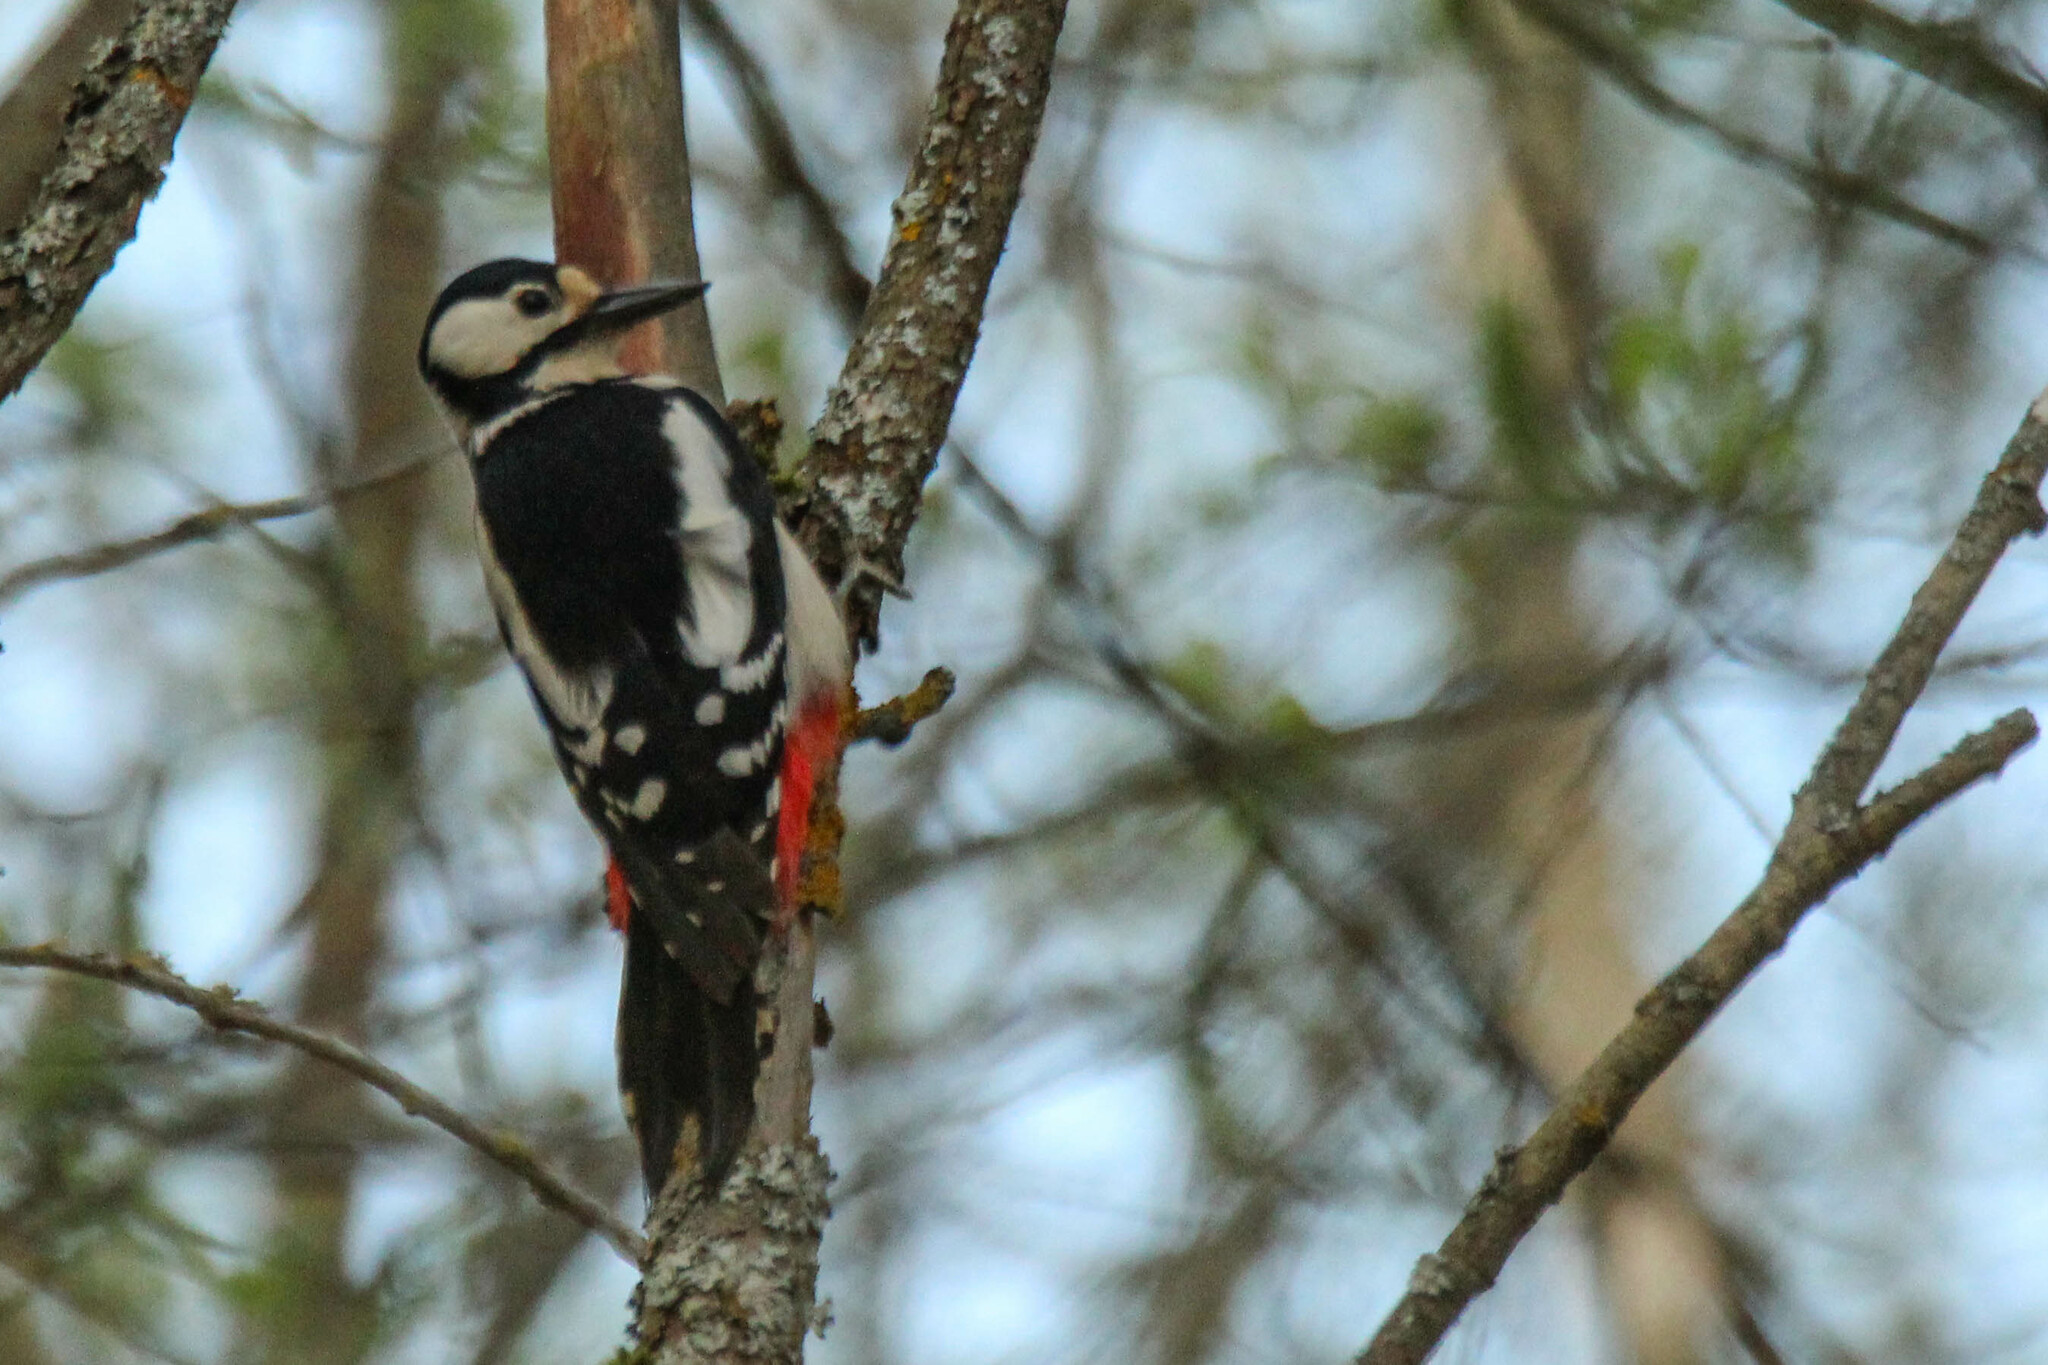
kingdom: Animalia
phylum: Chordata
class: Aves
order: Piciformes
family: Picidae
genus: Dendrocopos
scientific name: Dendrocopos major
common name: Great spotted woodpecker
